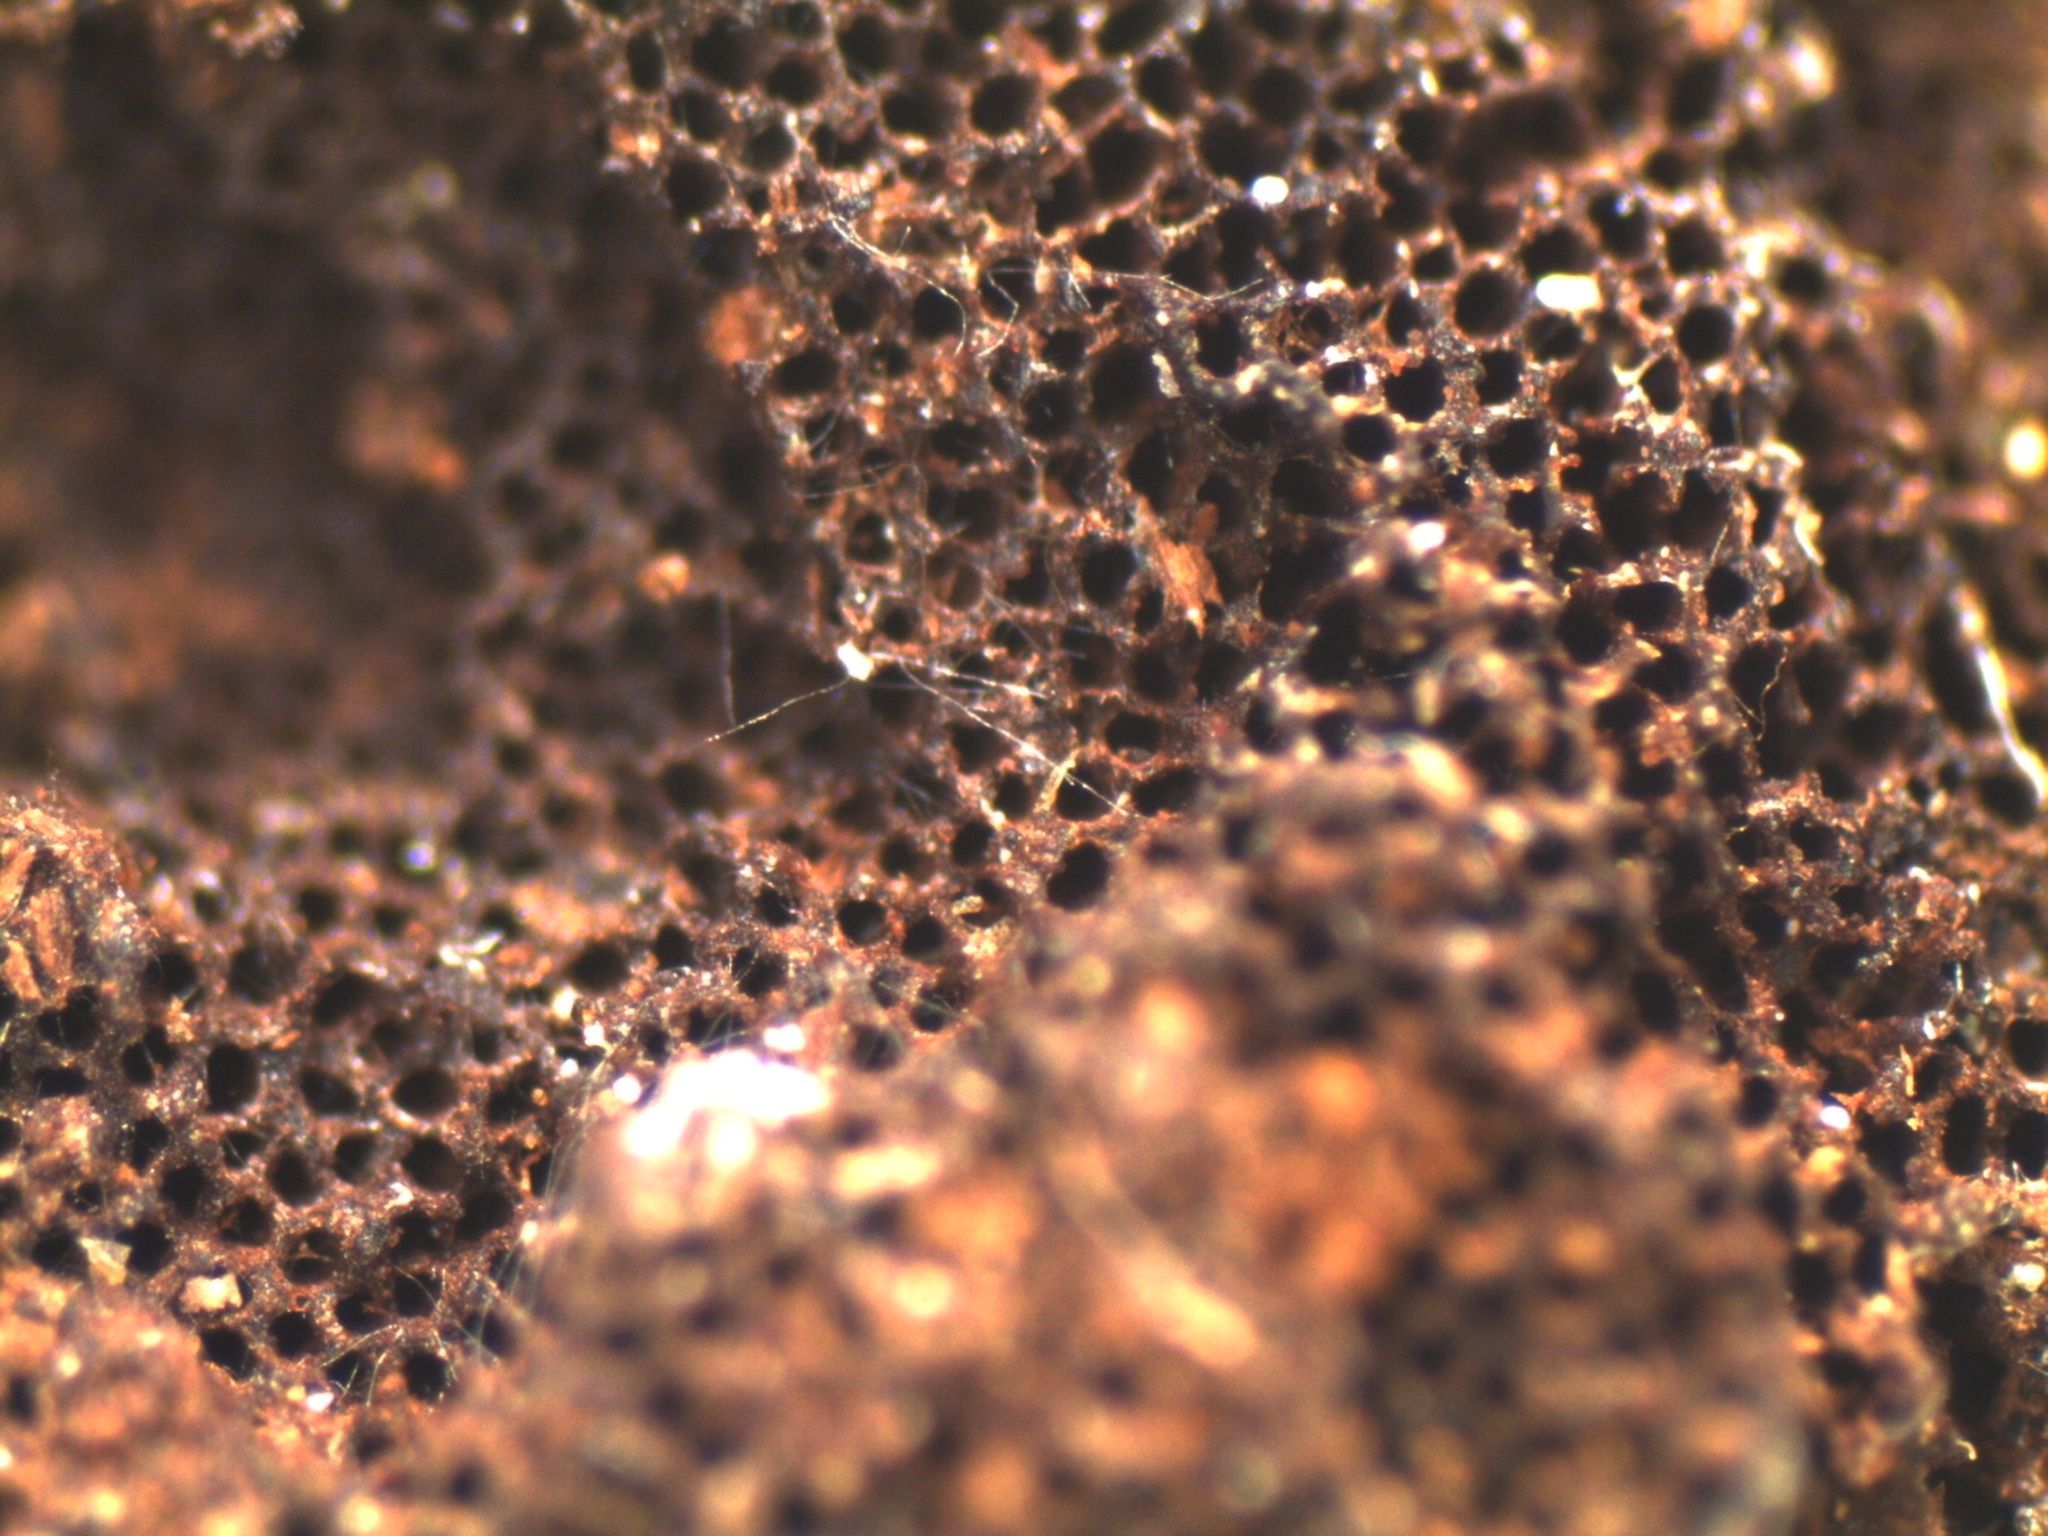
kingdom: Fungi
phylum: Basidiomycota
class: Agaricomycetes
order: Hymenochaetales
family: Hymenochaetaceae
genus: Nothonotus
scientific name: Nothonotus nothofagi
